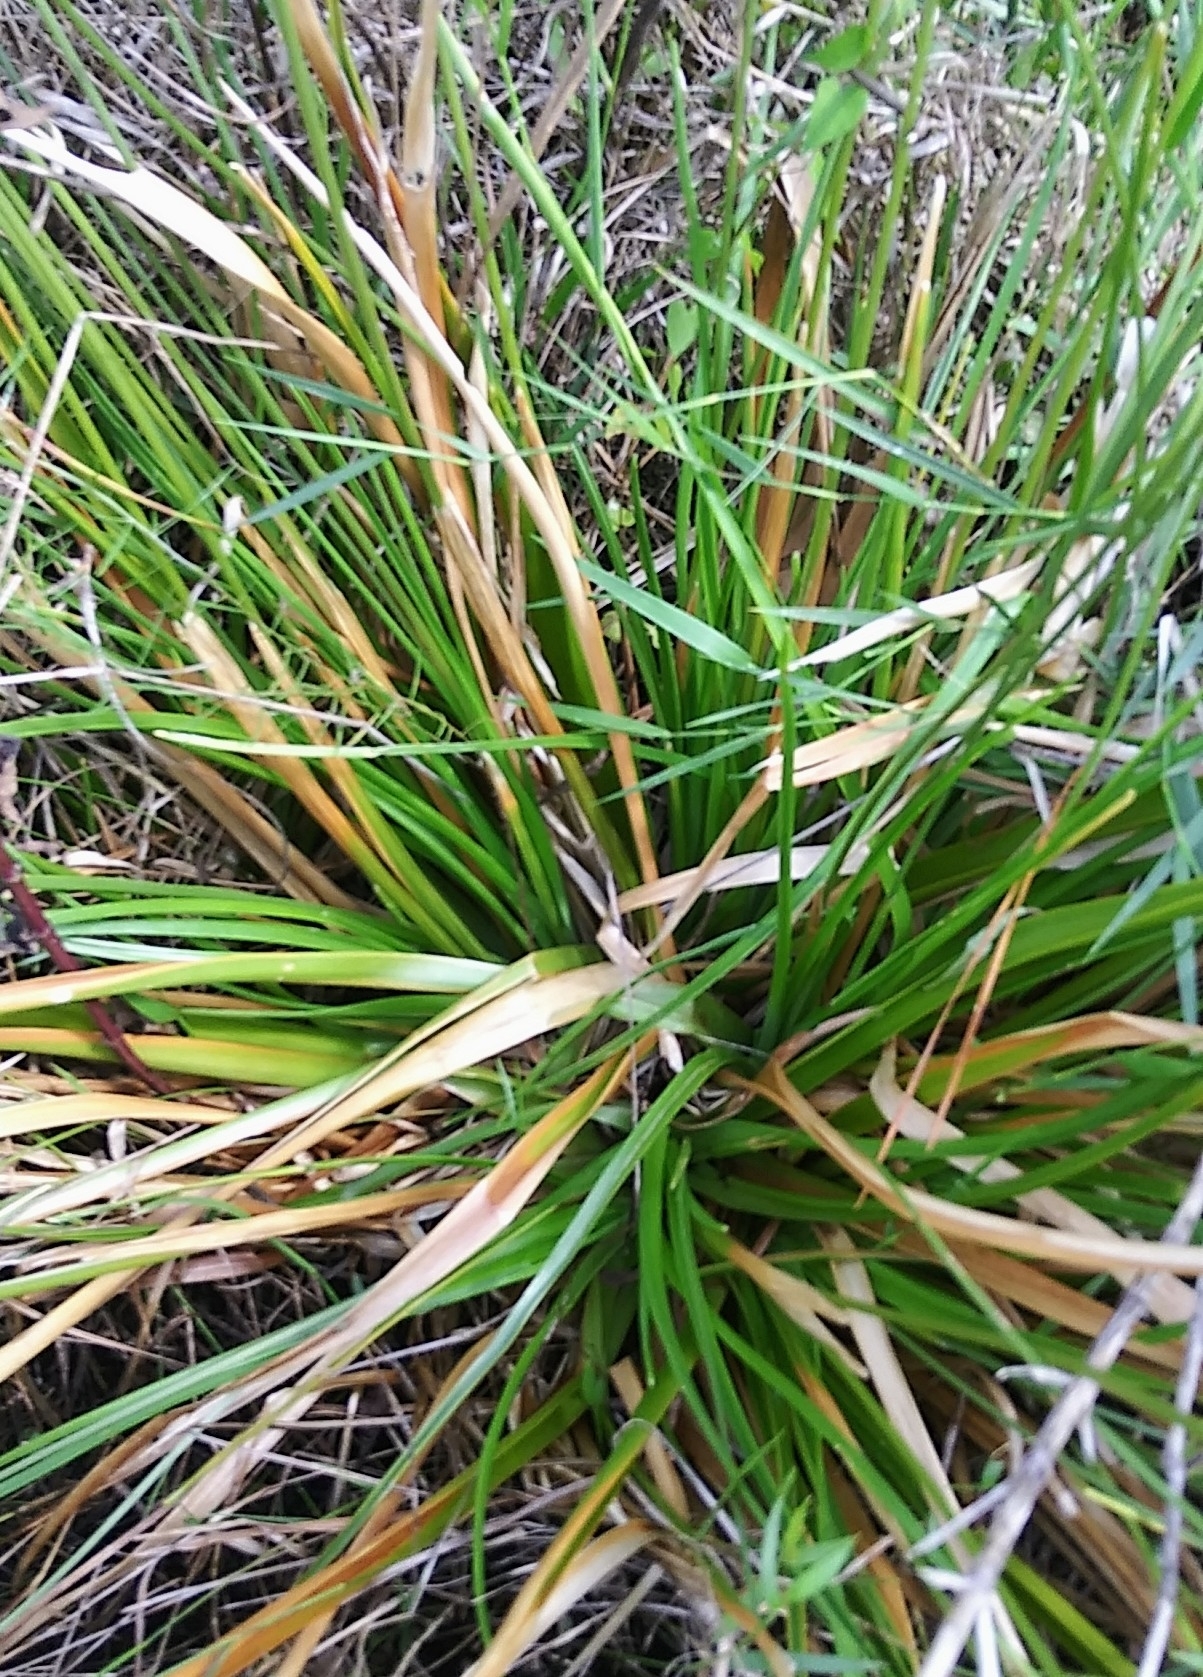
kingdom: Plantae
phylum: Tracheophyta
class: Liliopsida
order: Poales
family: Eriocaulaceae
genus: Eriocaulon
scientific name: Eriocaulon decangulare
